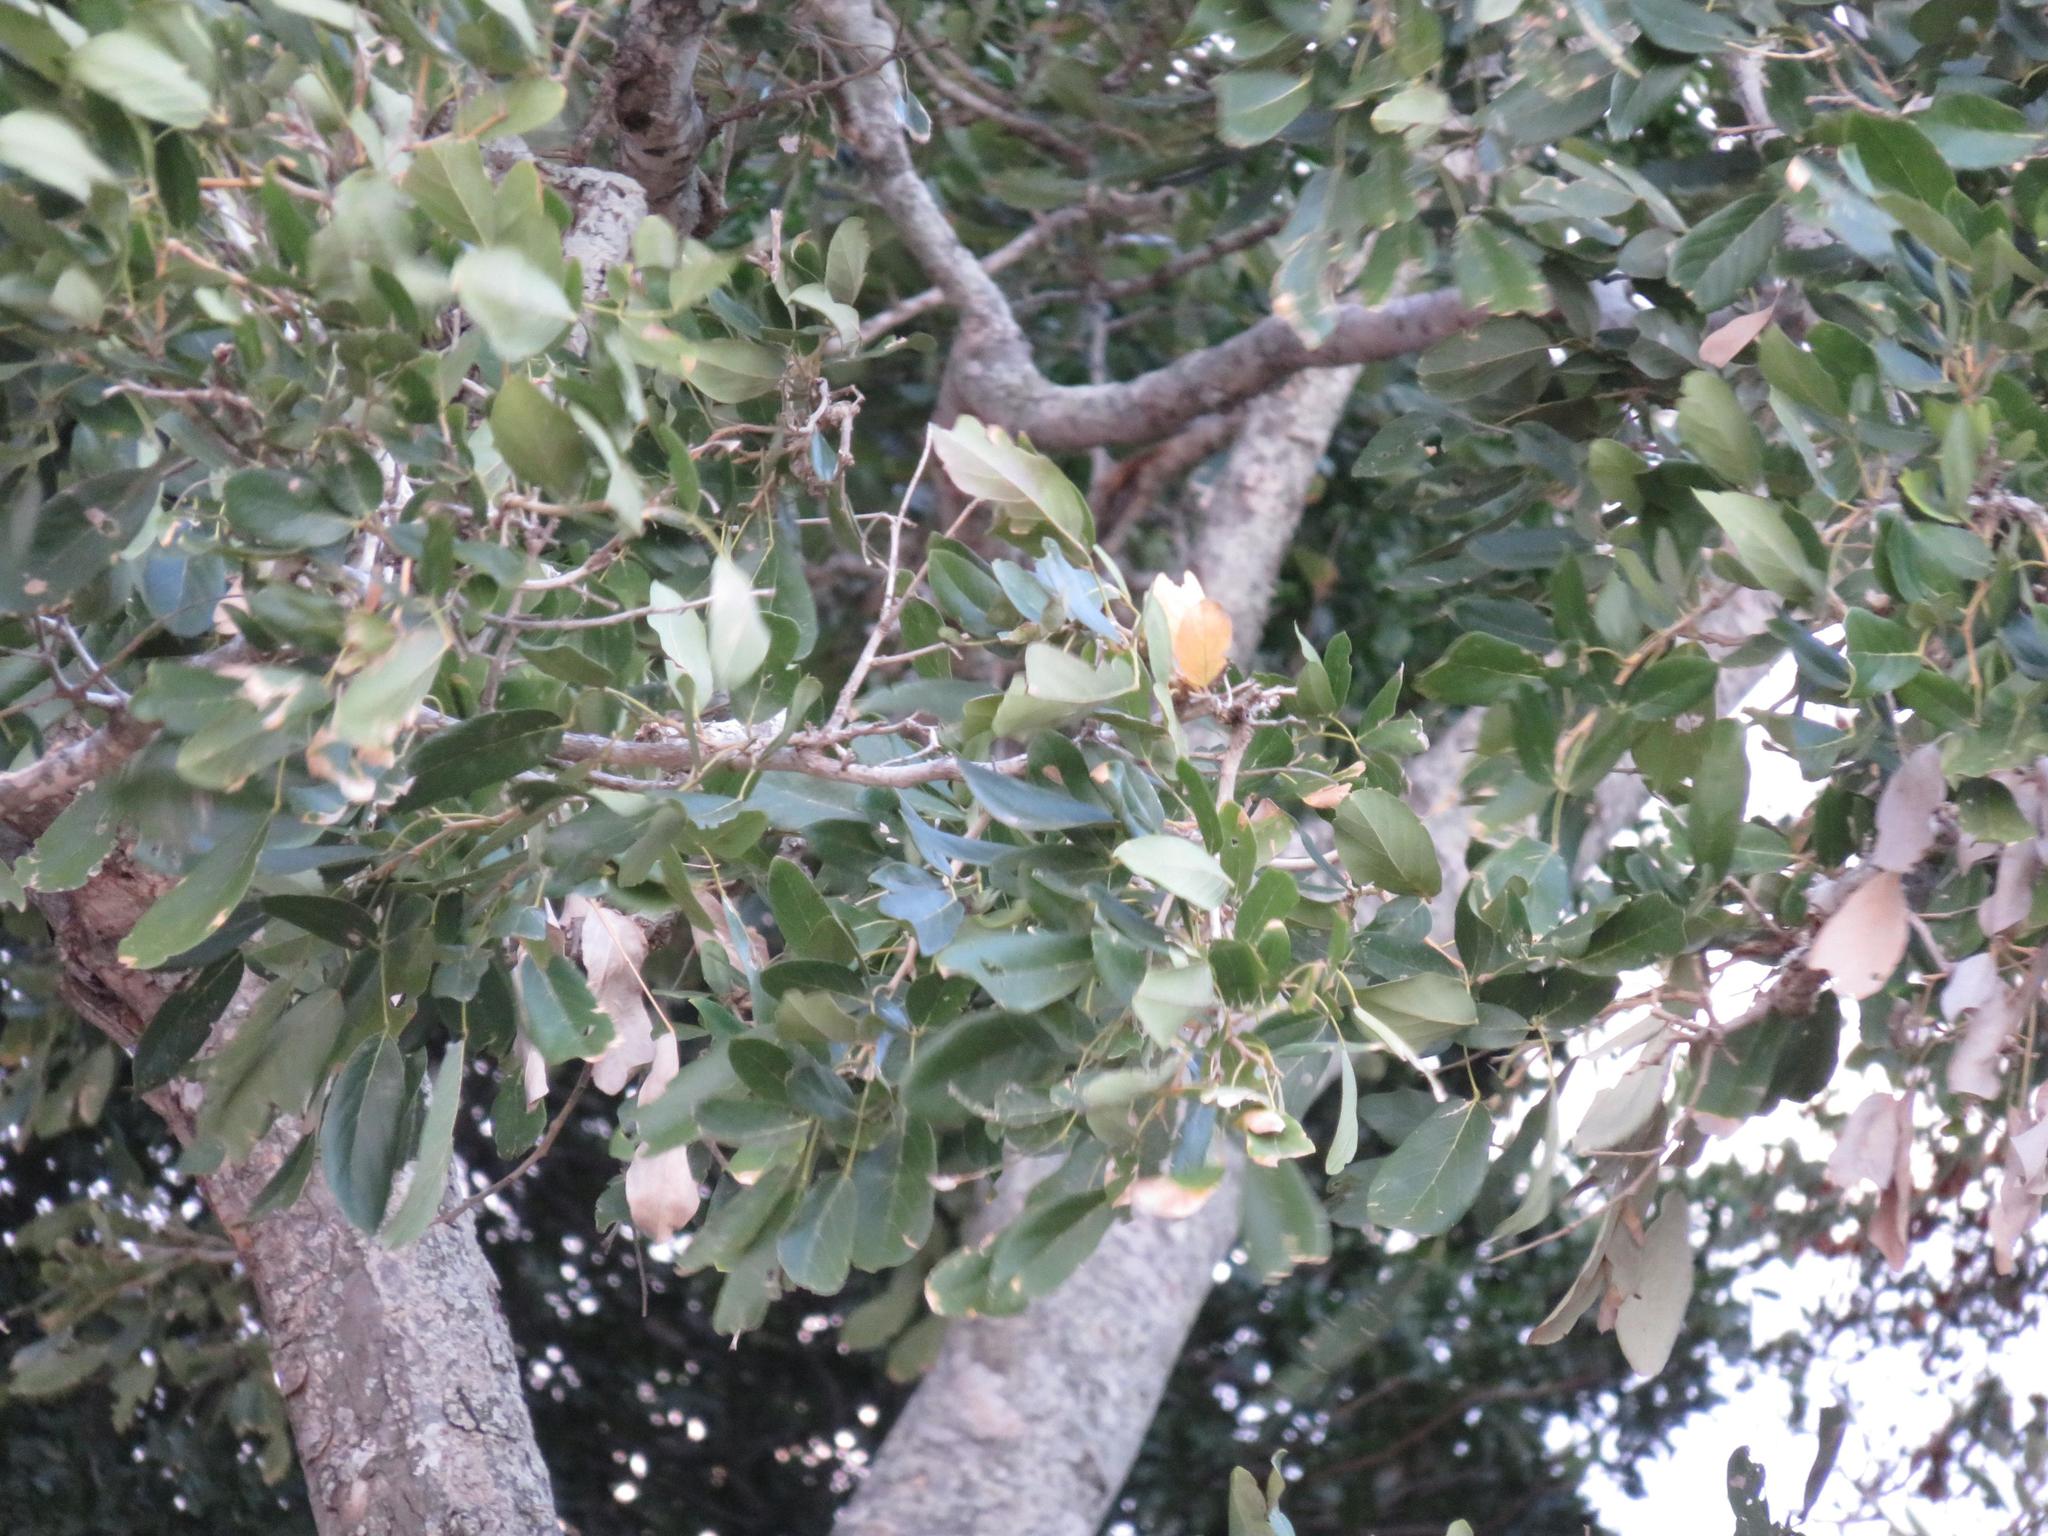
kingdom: Plantae
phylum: Tracheophyta
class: Magnoliopsida
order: Fabales
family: Fabaceae
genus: Philenoptera
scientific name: Philenoptera violacea
